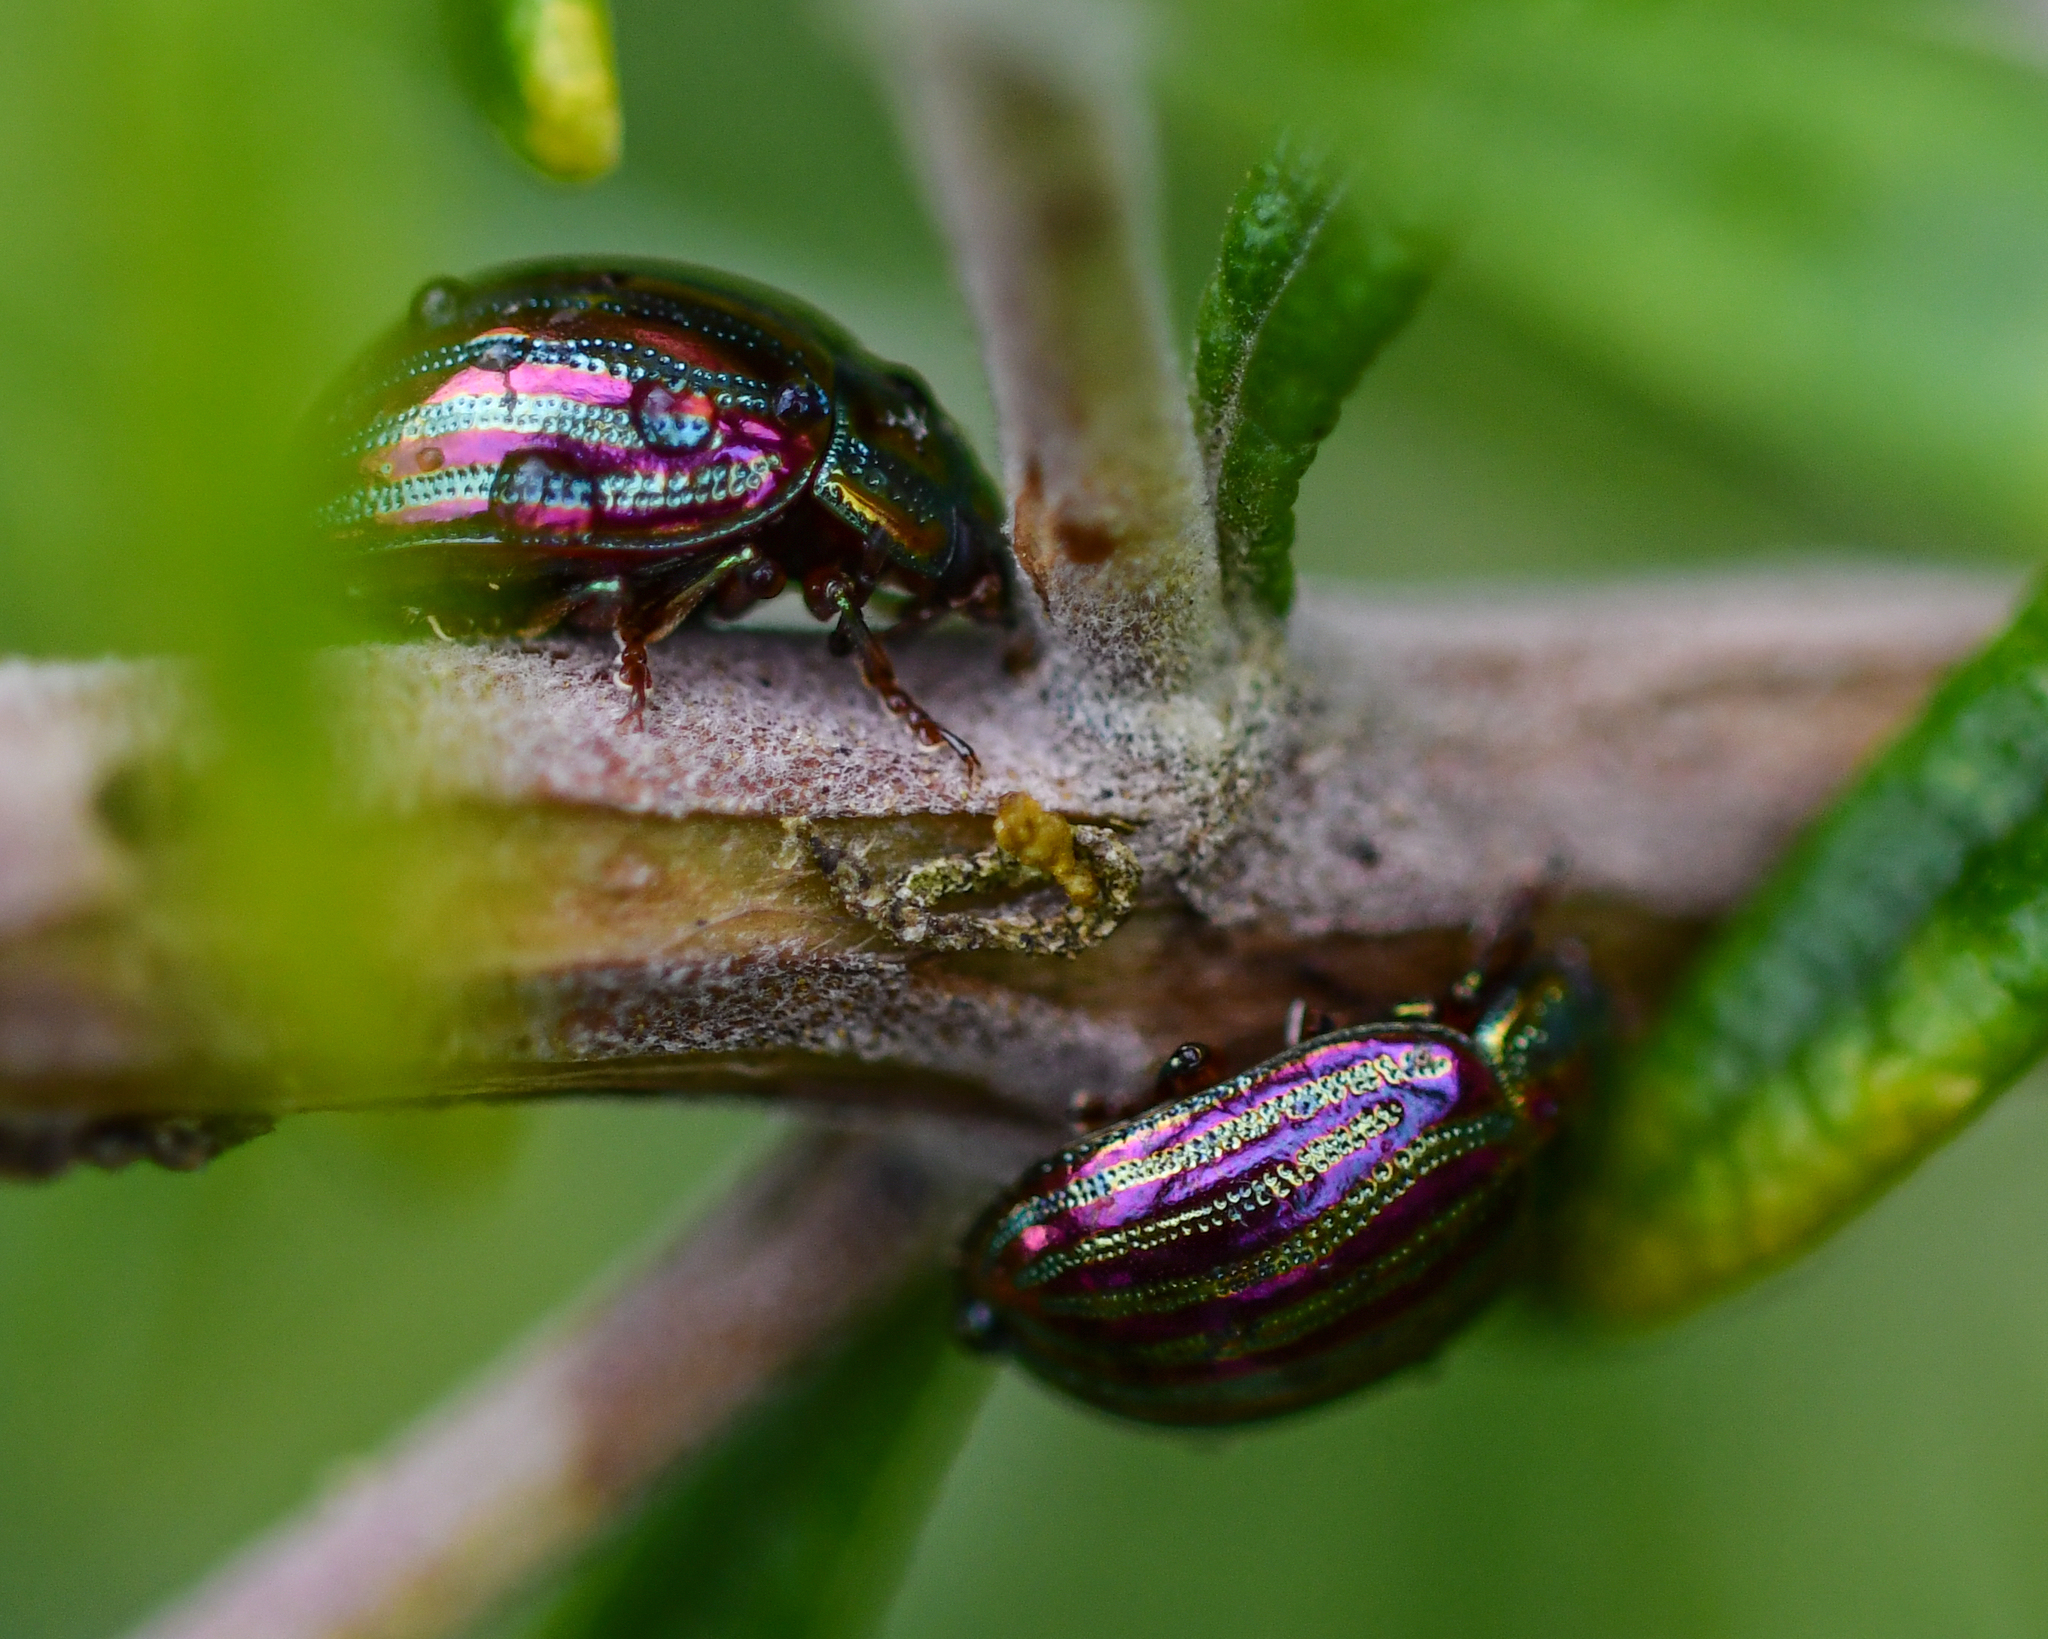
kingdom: Animalia
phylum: Arthropoda
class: Insecta
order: Coleoptera
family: Chrysomelidae
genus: Chrysolina
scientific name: Chrysolina americana
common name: Rosemary beetle
